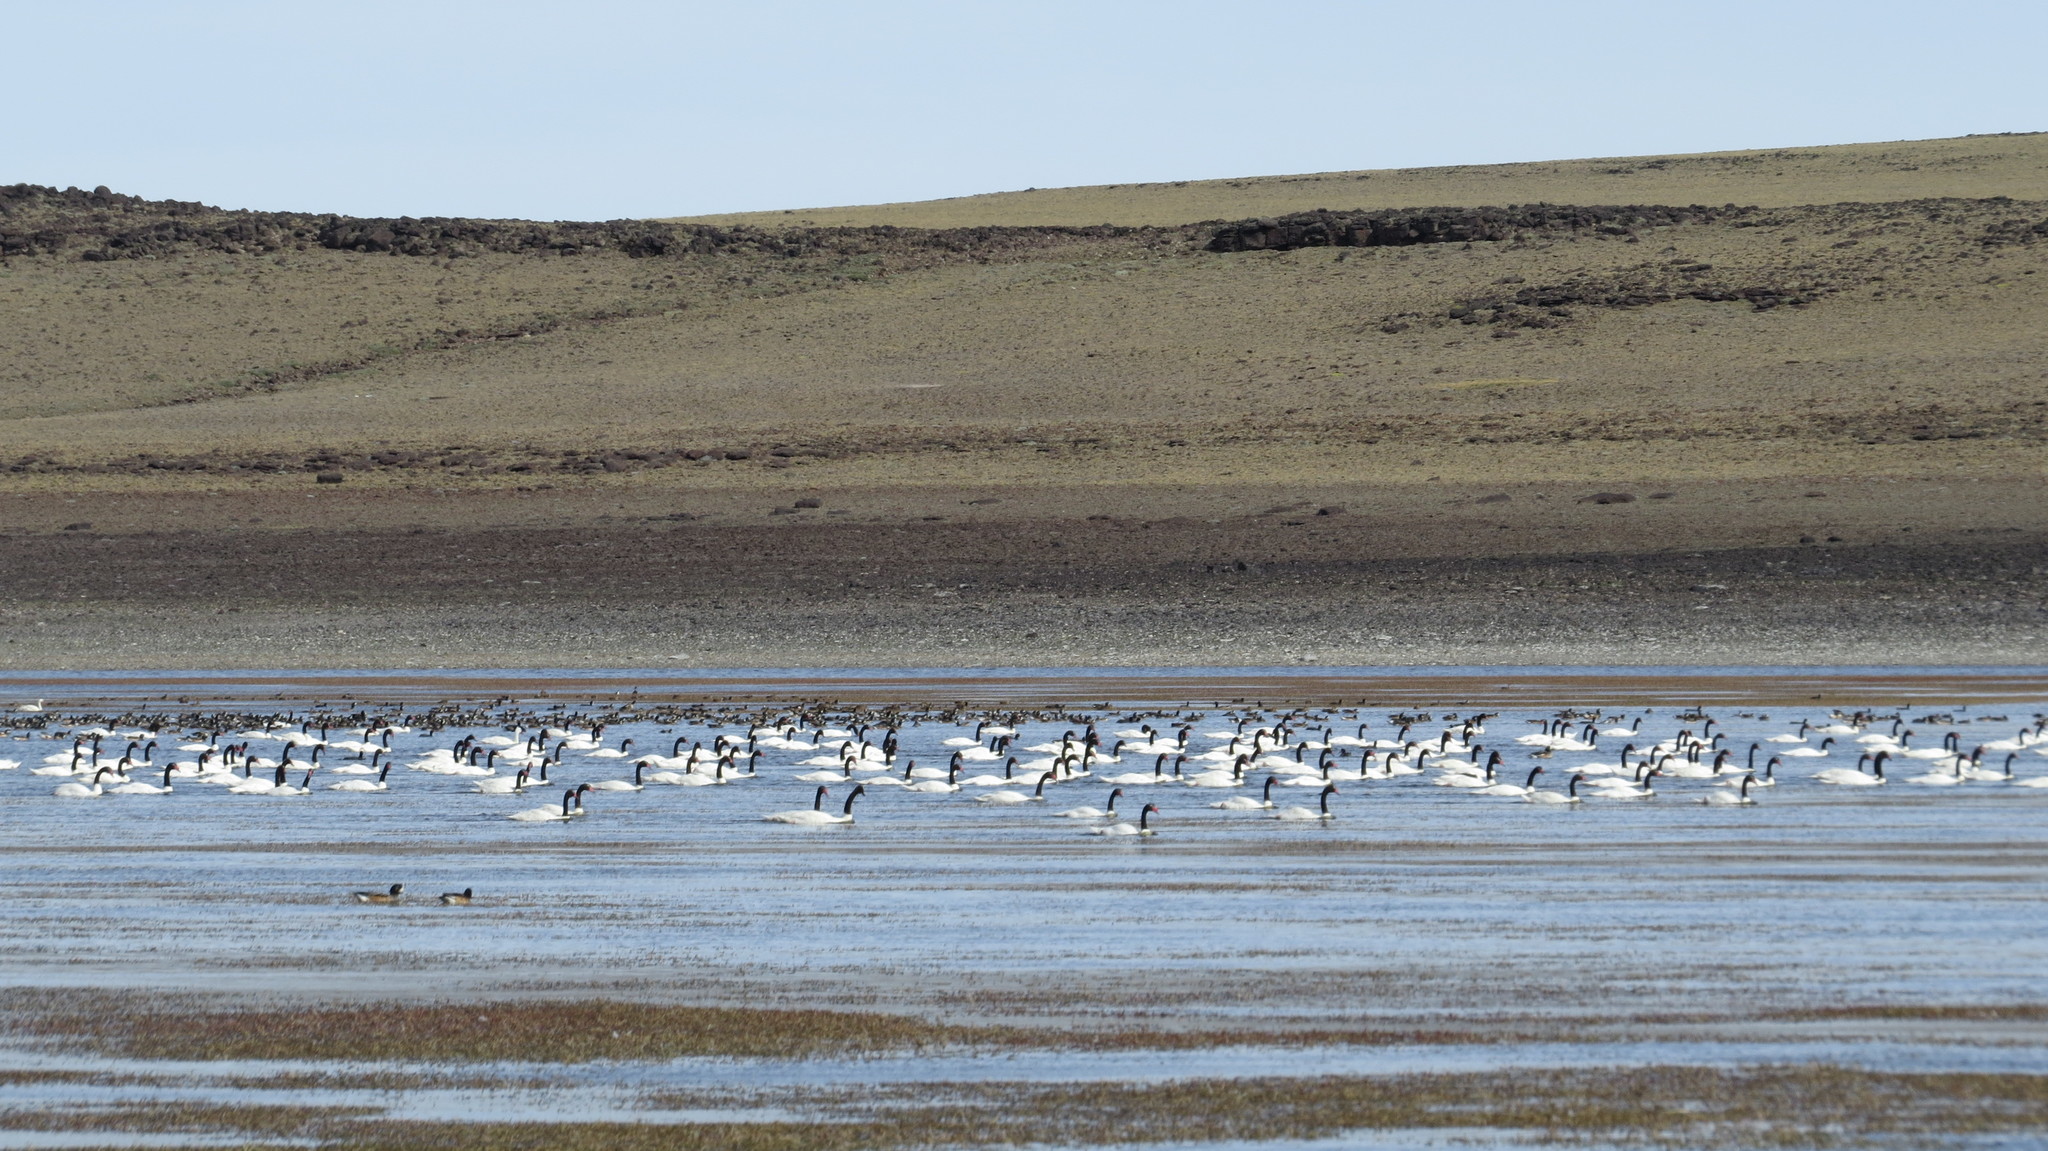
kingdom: Animalia
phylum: Chordata
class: Aves
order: Anseriformes
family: Anatidae
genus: Cygnus
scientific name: Cygnus melancoryphus
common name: Black-necked swan
